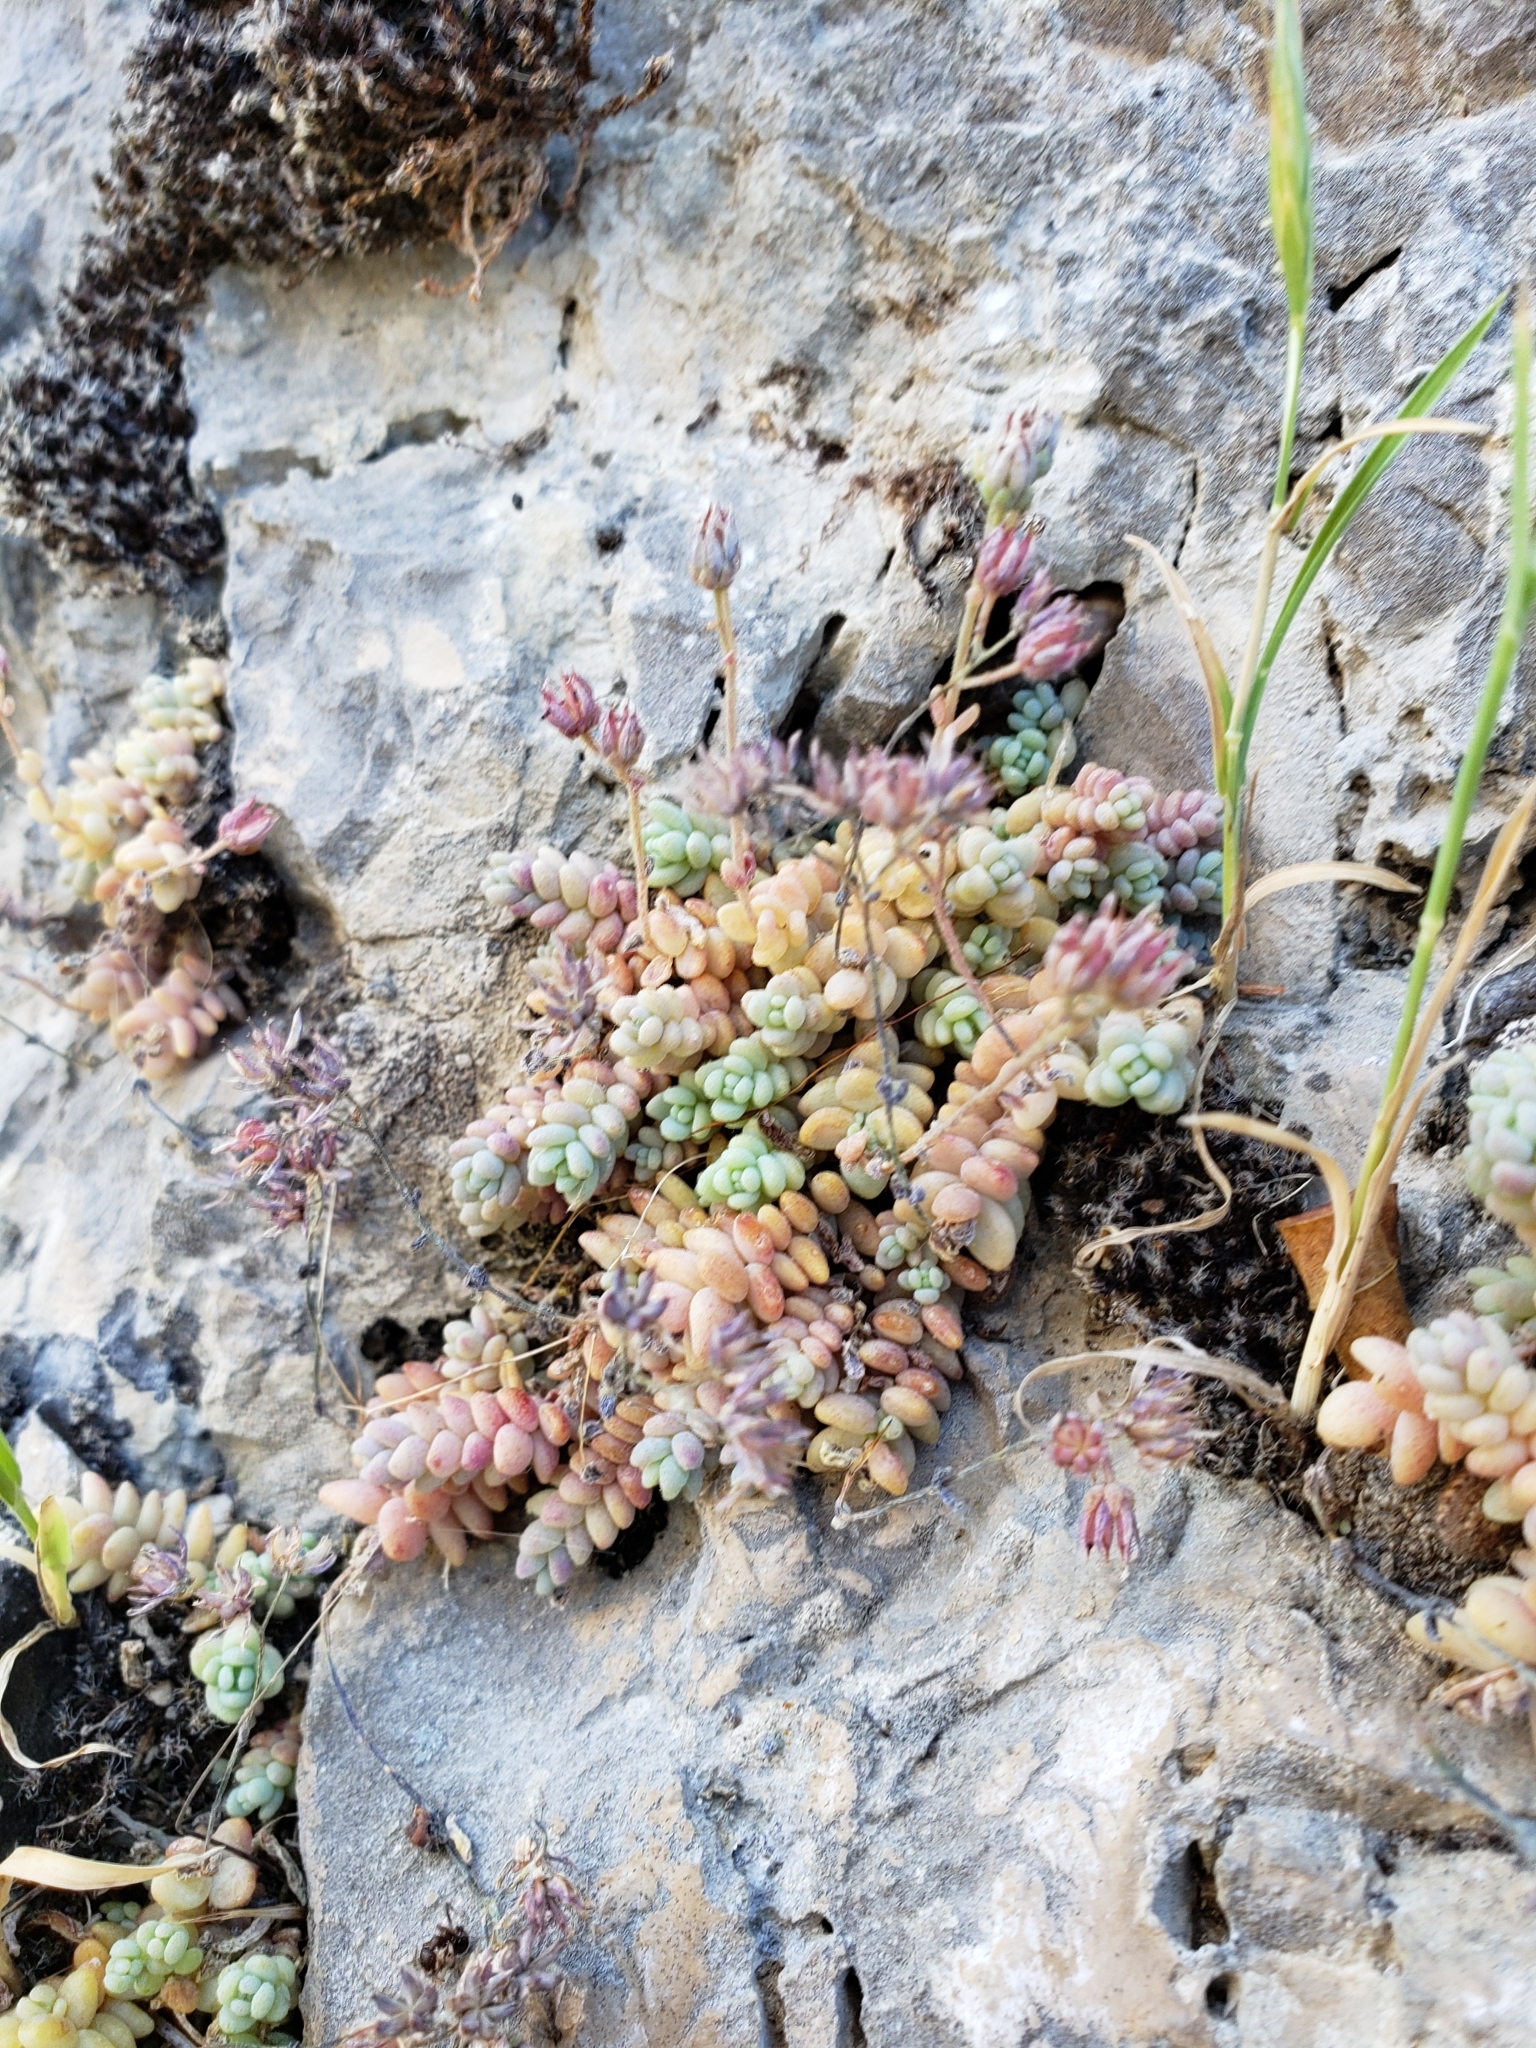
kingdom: Plantae
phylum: Tracheophyta
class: Magnoliopsida
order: Saxifragales
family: Crassulaceae
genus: Sedum
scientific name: Sedum dasyphyllum
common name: Thick-leaf stonecrop
